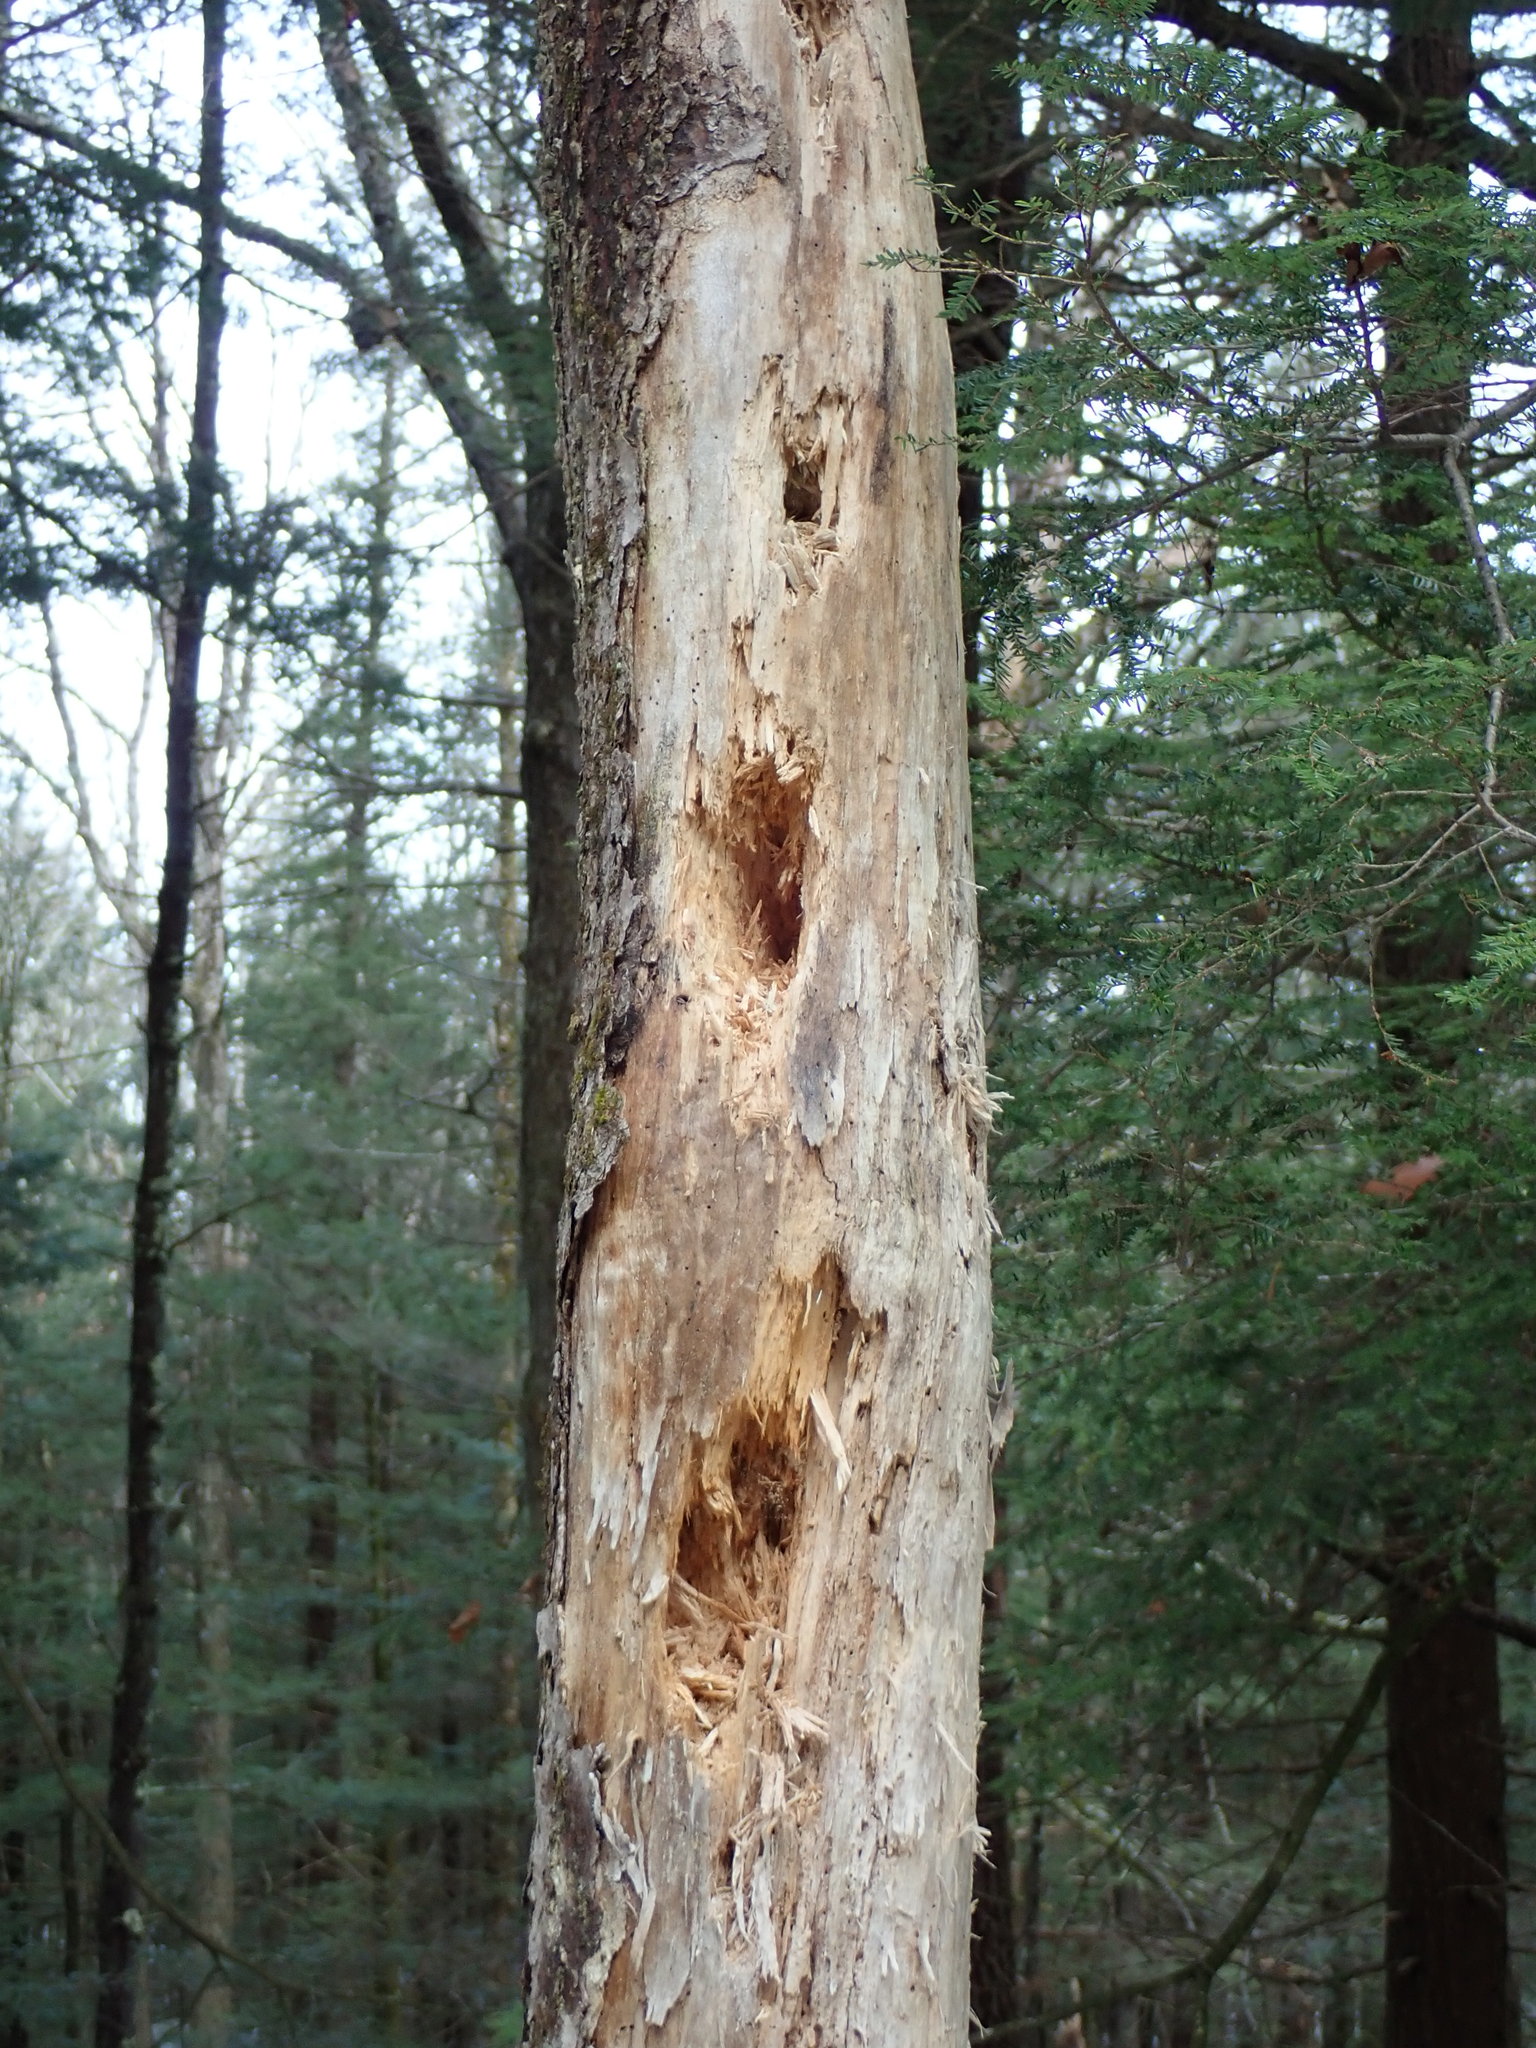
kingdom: Animalia
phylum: Chordata
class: Aves
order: Piciformes
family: Picidae
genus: Dryocopus
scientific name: Dryocopus pileatus
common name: Pileated woodpecker
